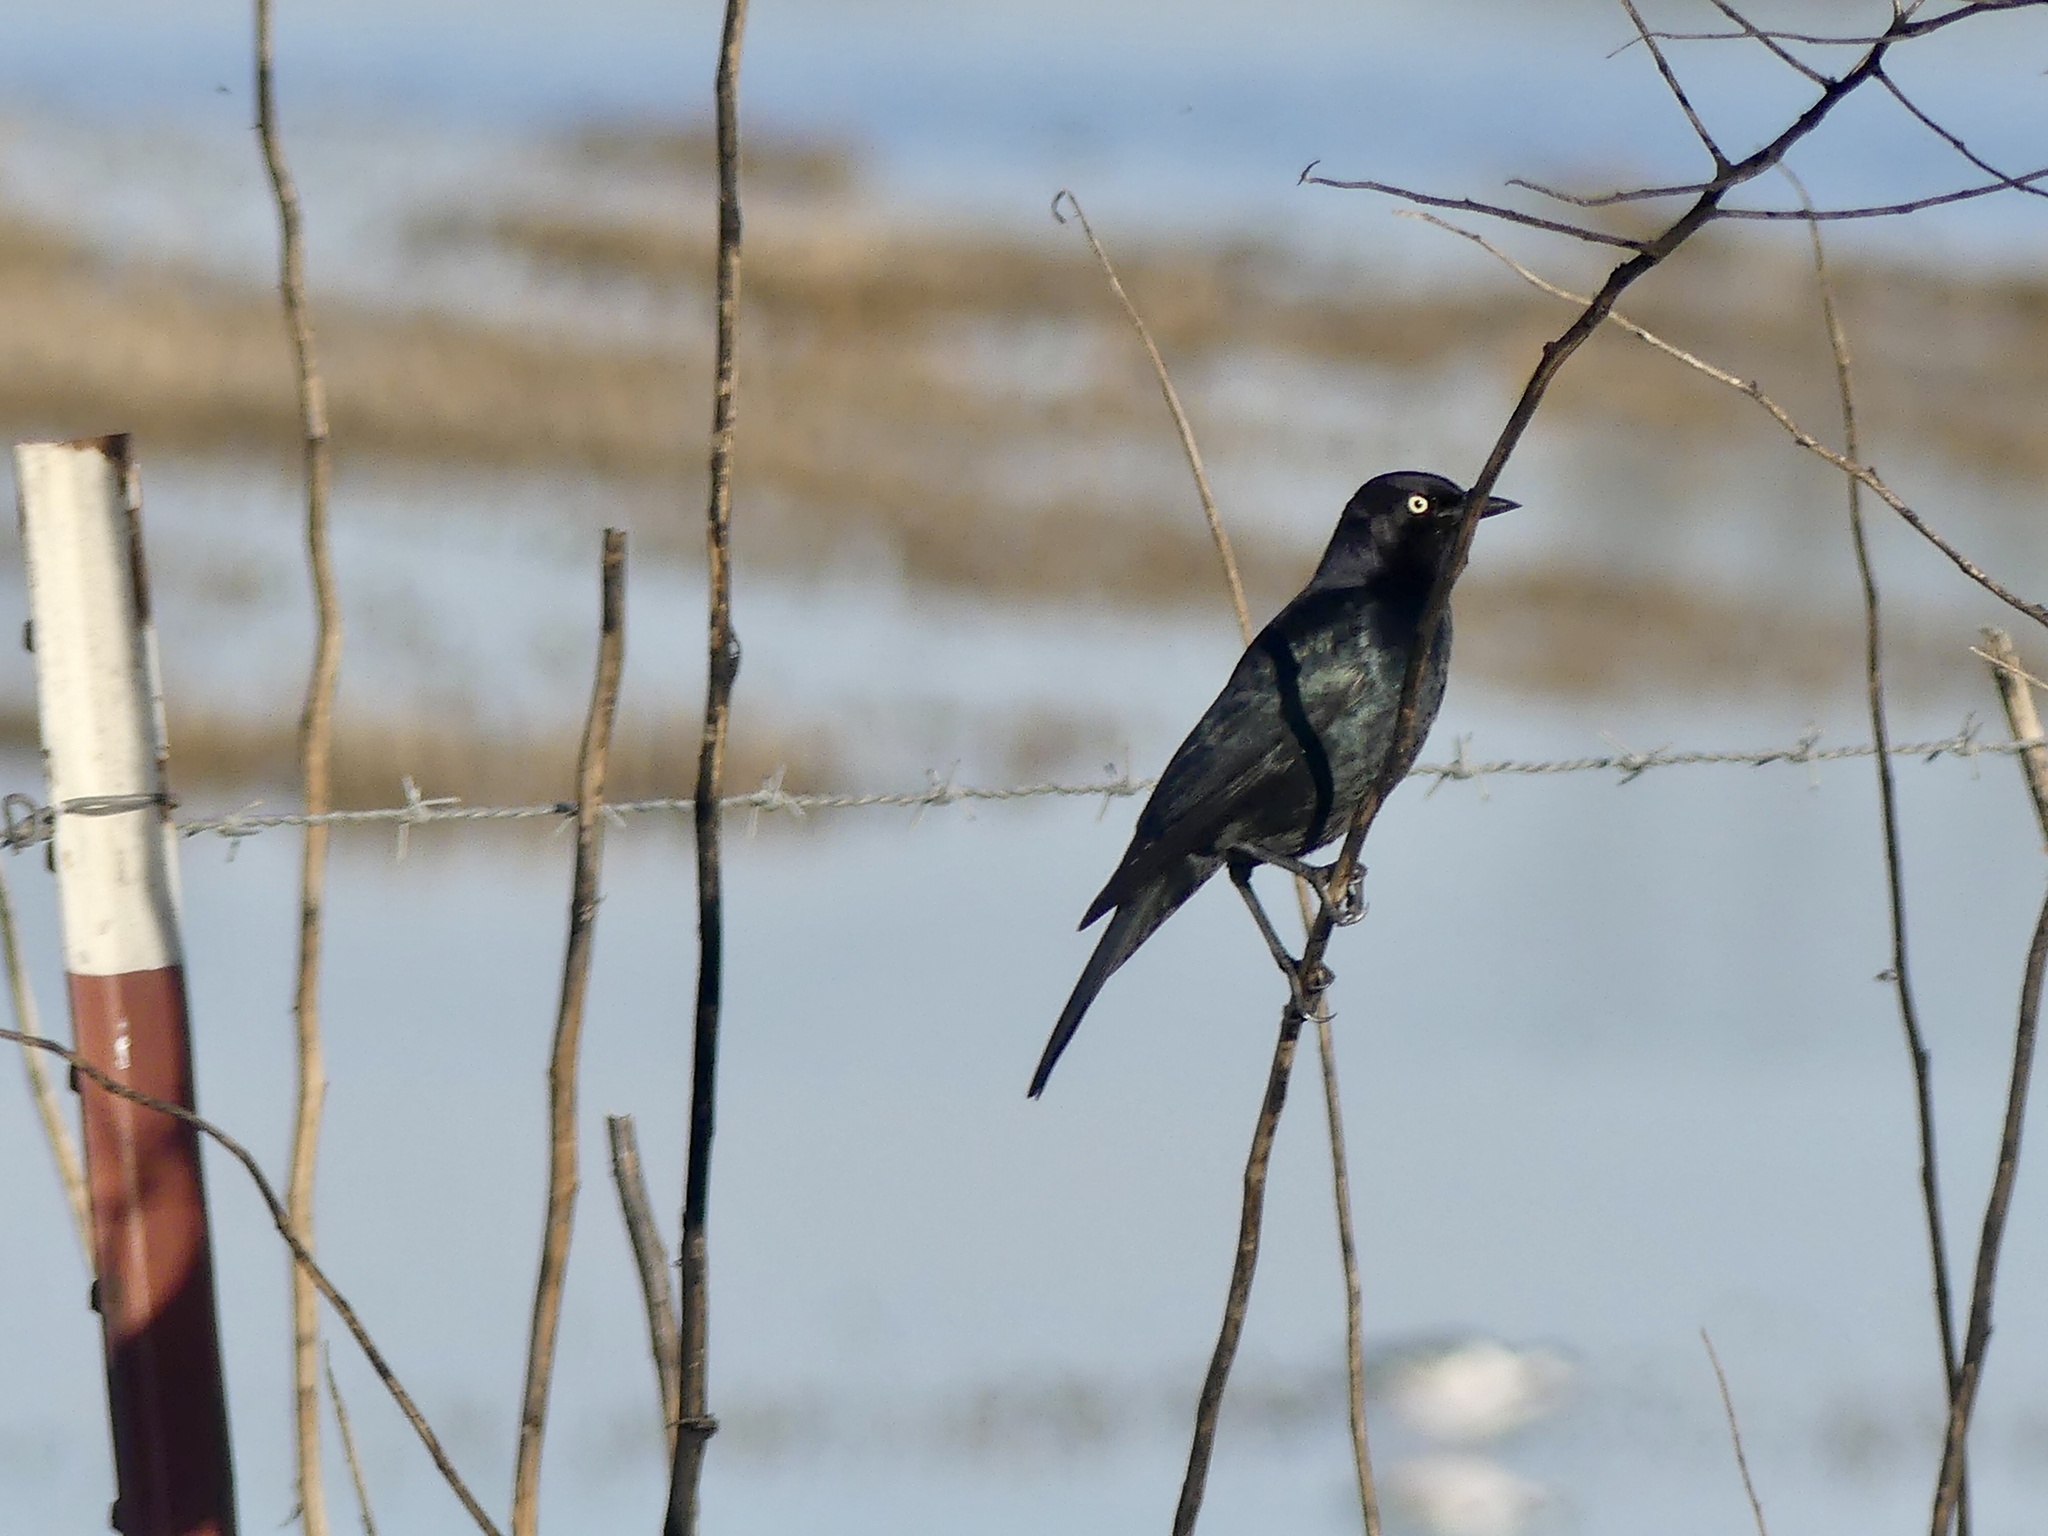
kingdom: Animalia
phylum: Chordata
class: Aves
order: Passeriformes
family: Icteridae
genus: Euphagus
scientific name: Euphagus cyanocephalus
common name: Brewer's blackbird
